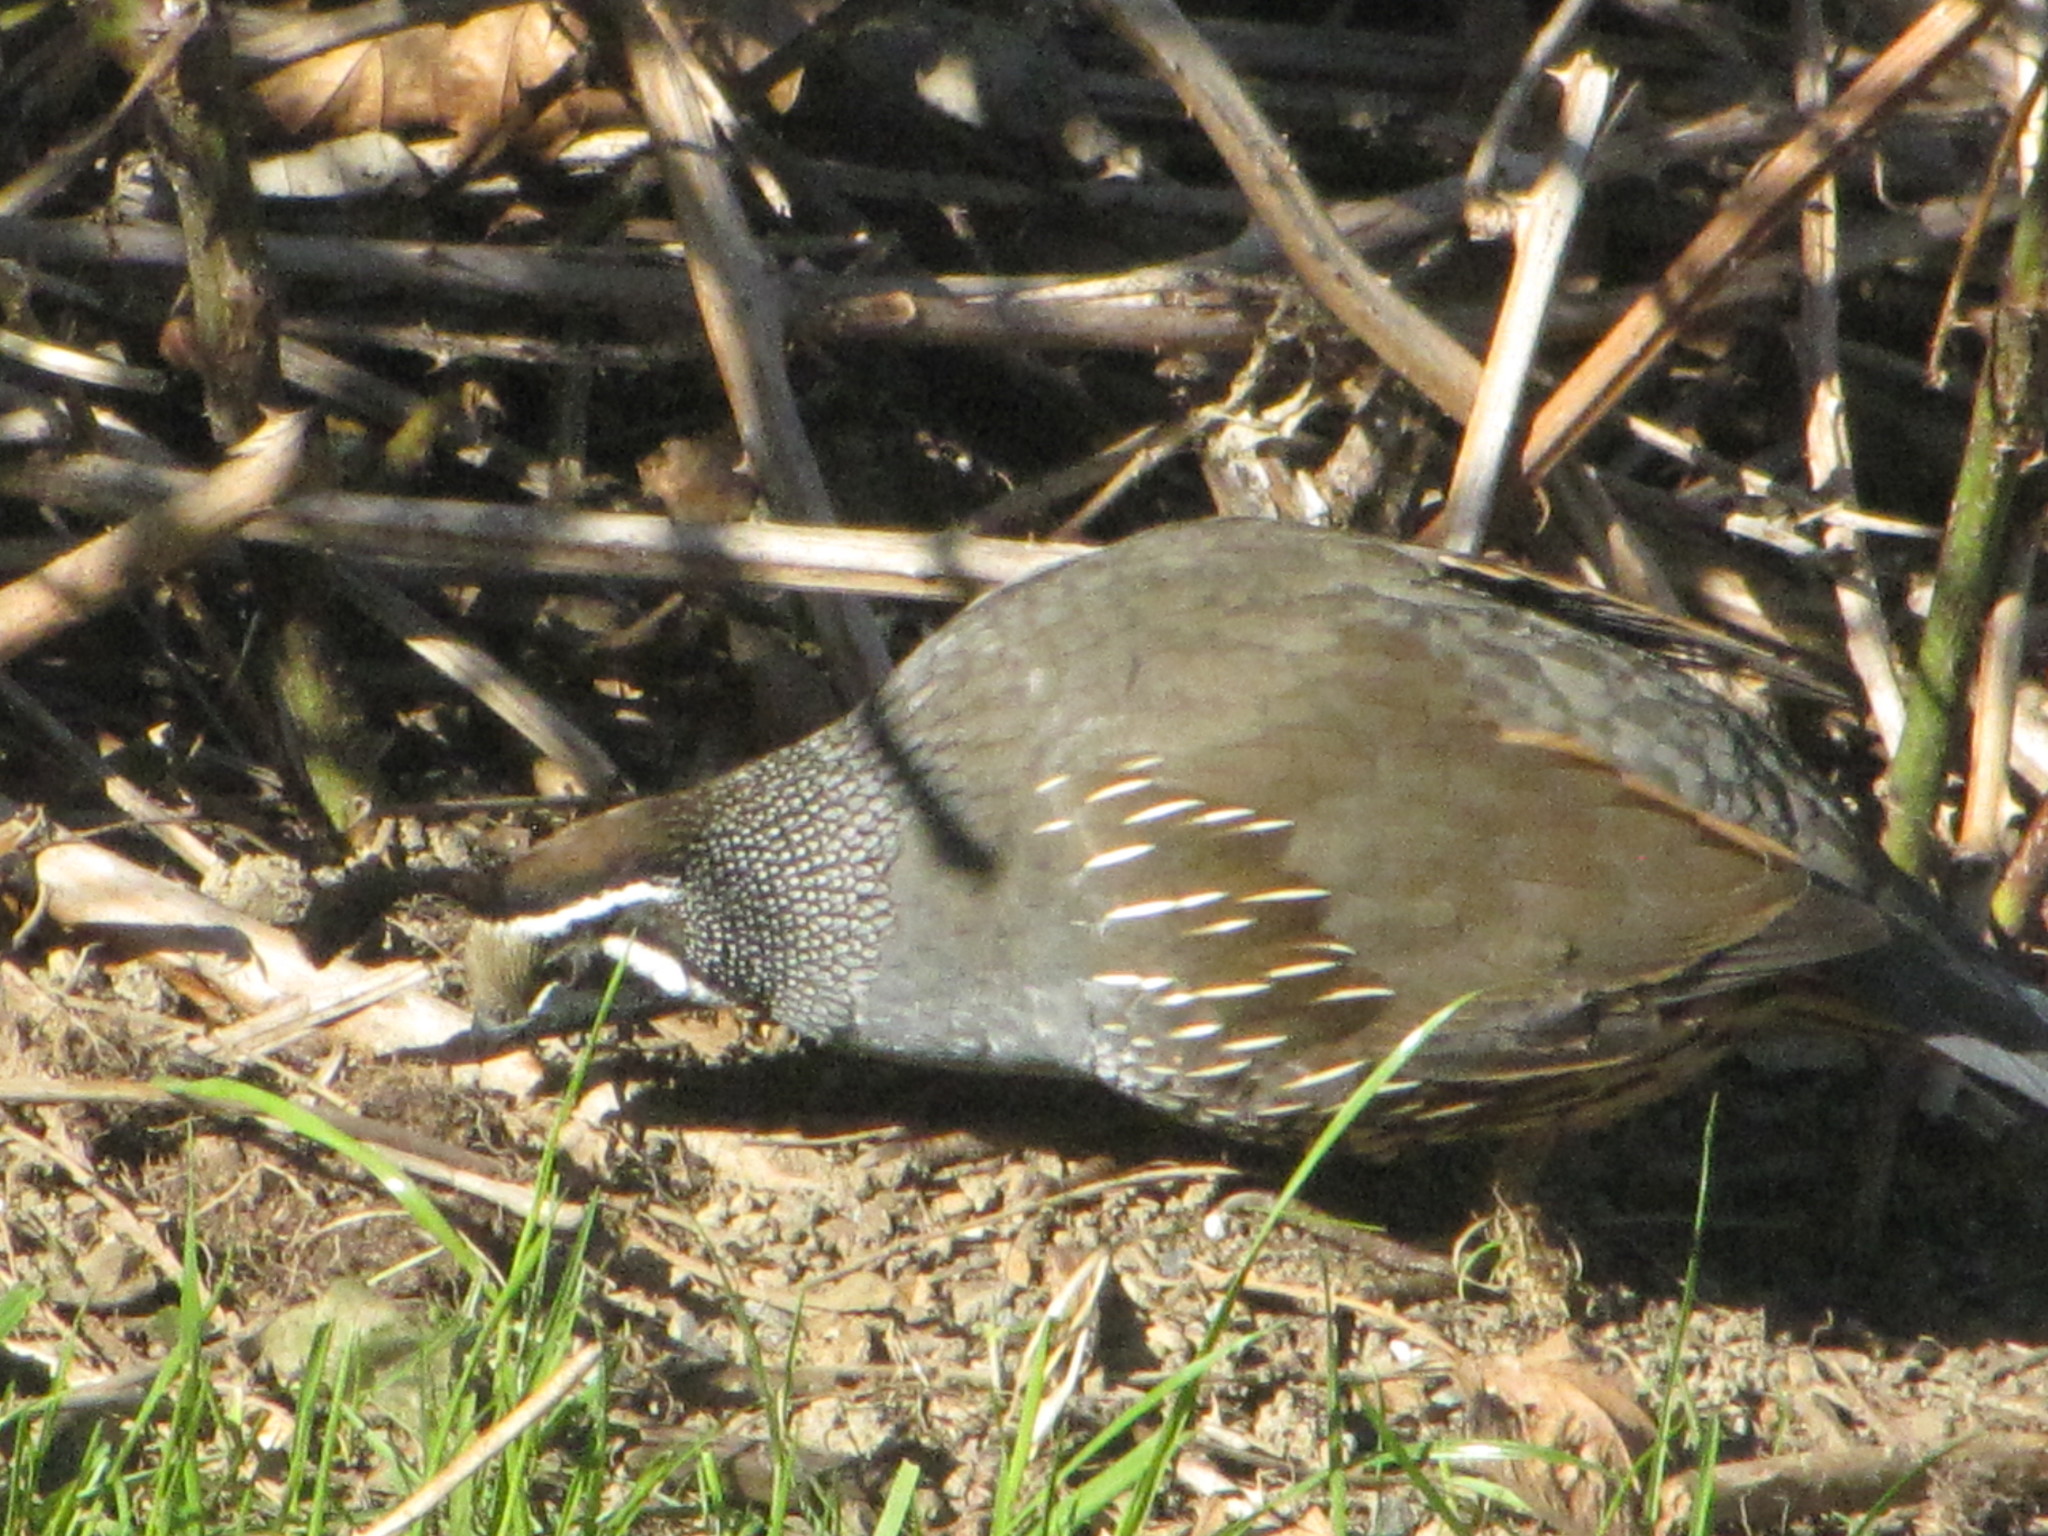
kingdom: Animalia
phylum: Chordata
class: Aves
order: Galliformes
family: Odontophoridae
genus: Callipepla
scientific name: Callipepla californica
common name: California quail
